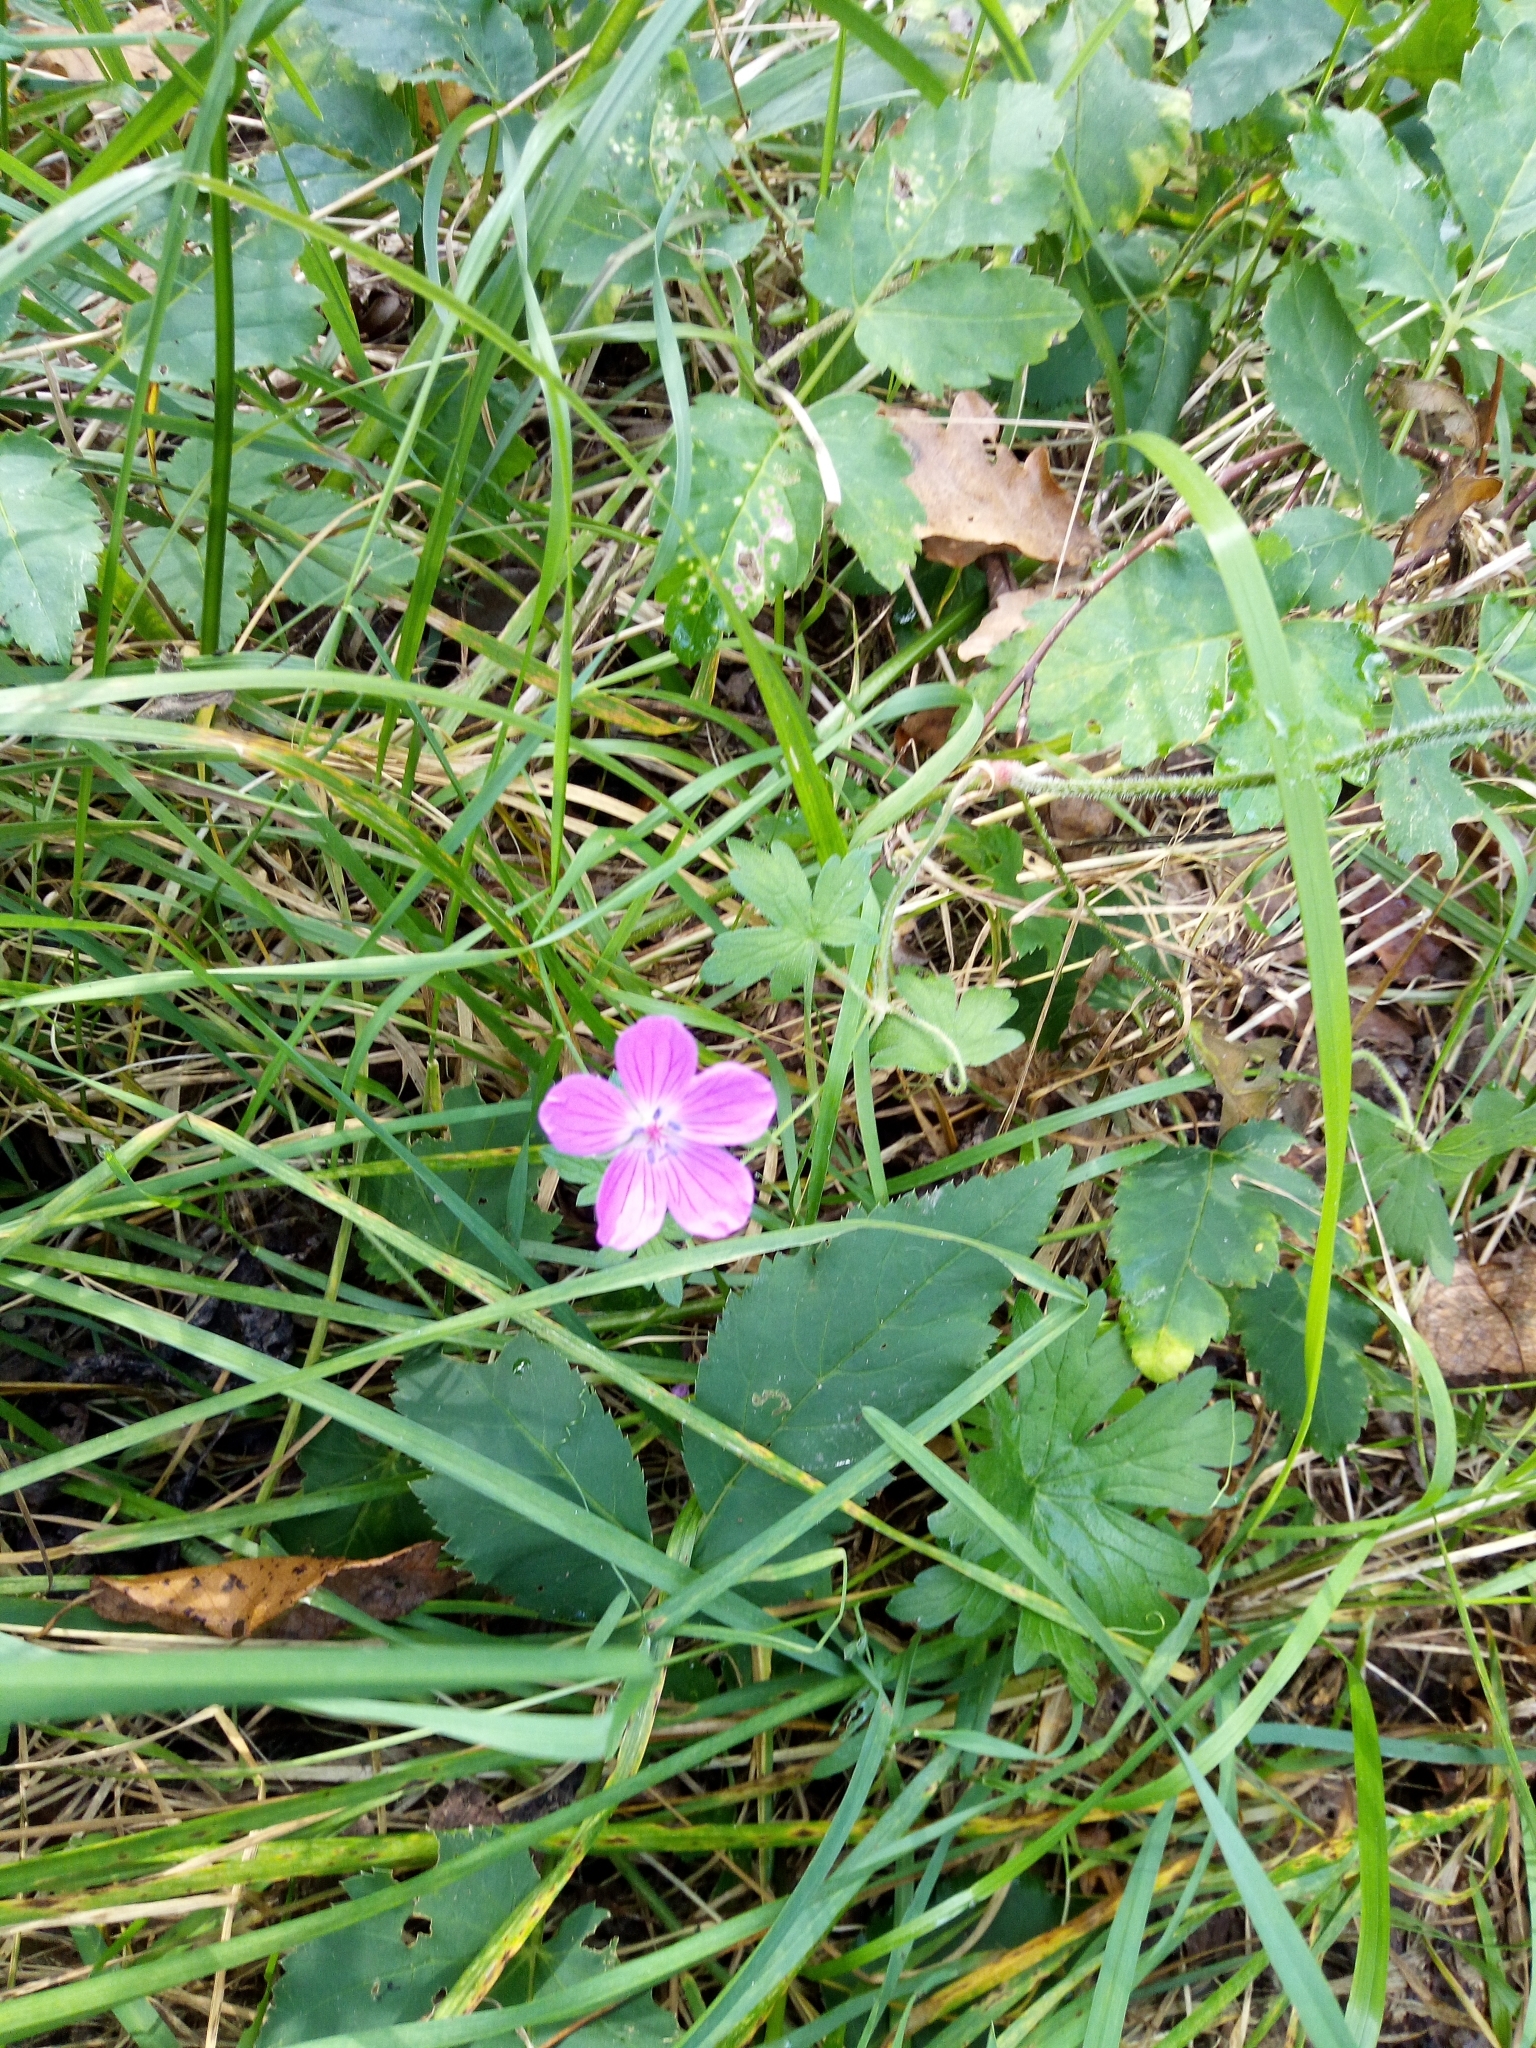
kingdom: Plantae
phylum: Tracheophyta
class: Magnoliopsida
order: Geraniales
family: Geraniaceae
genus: Geranium
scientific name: Geranium palustre
